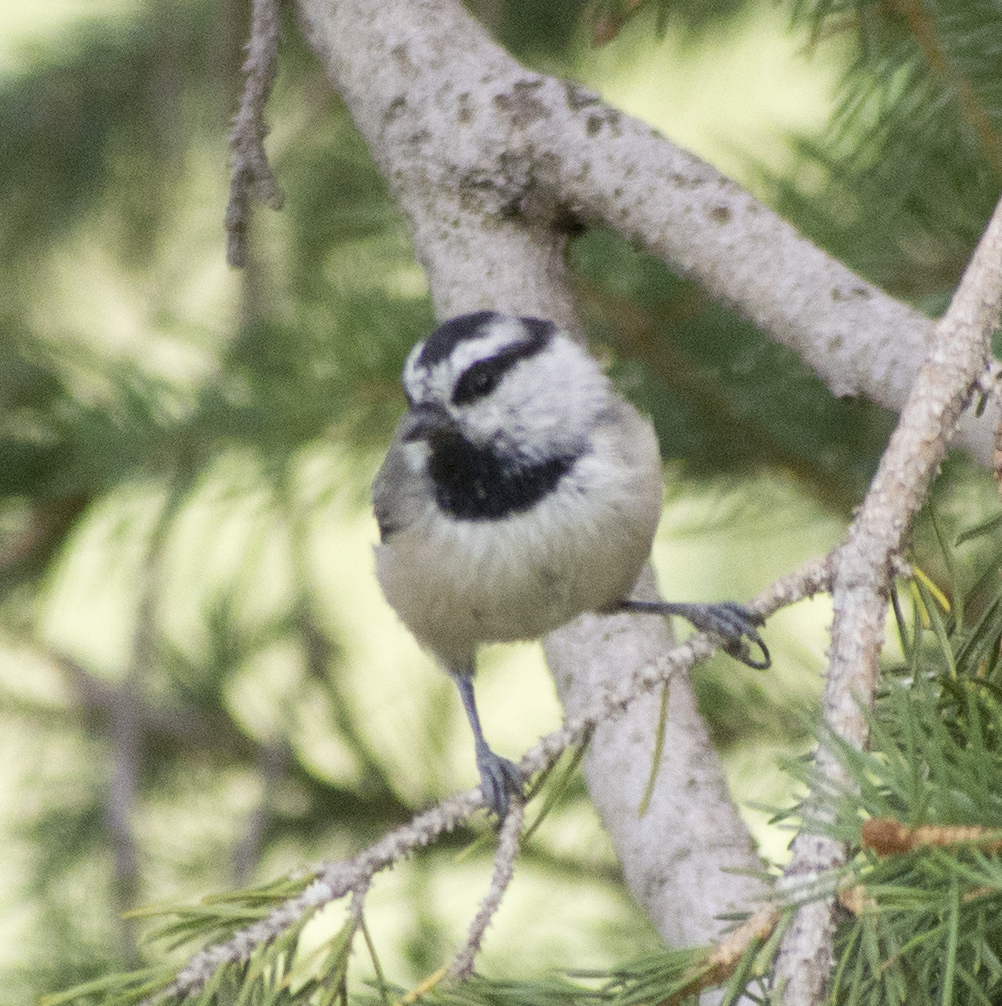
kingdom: Animalia
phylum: Chordata
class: Aves
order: Passeriformes
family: Paridae
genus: Poecile
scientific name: Poecile gambeli
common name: Mountain chickadee
